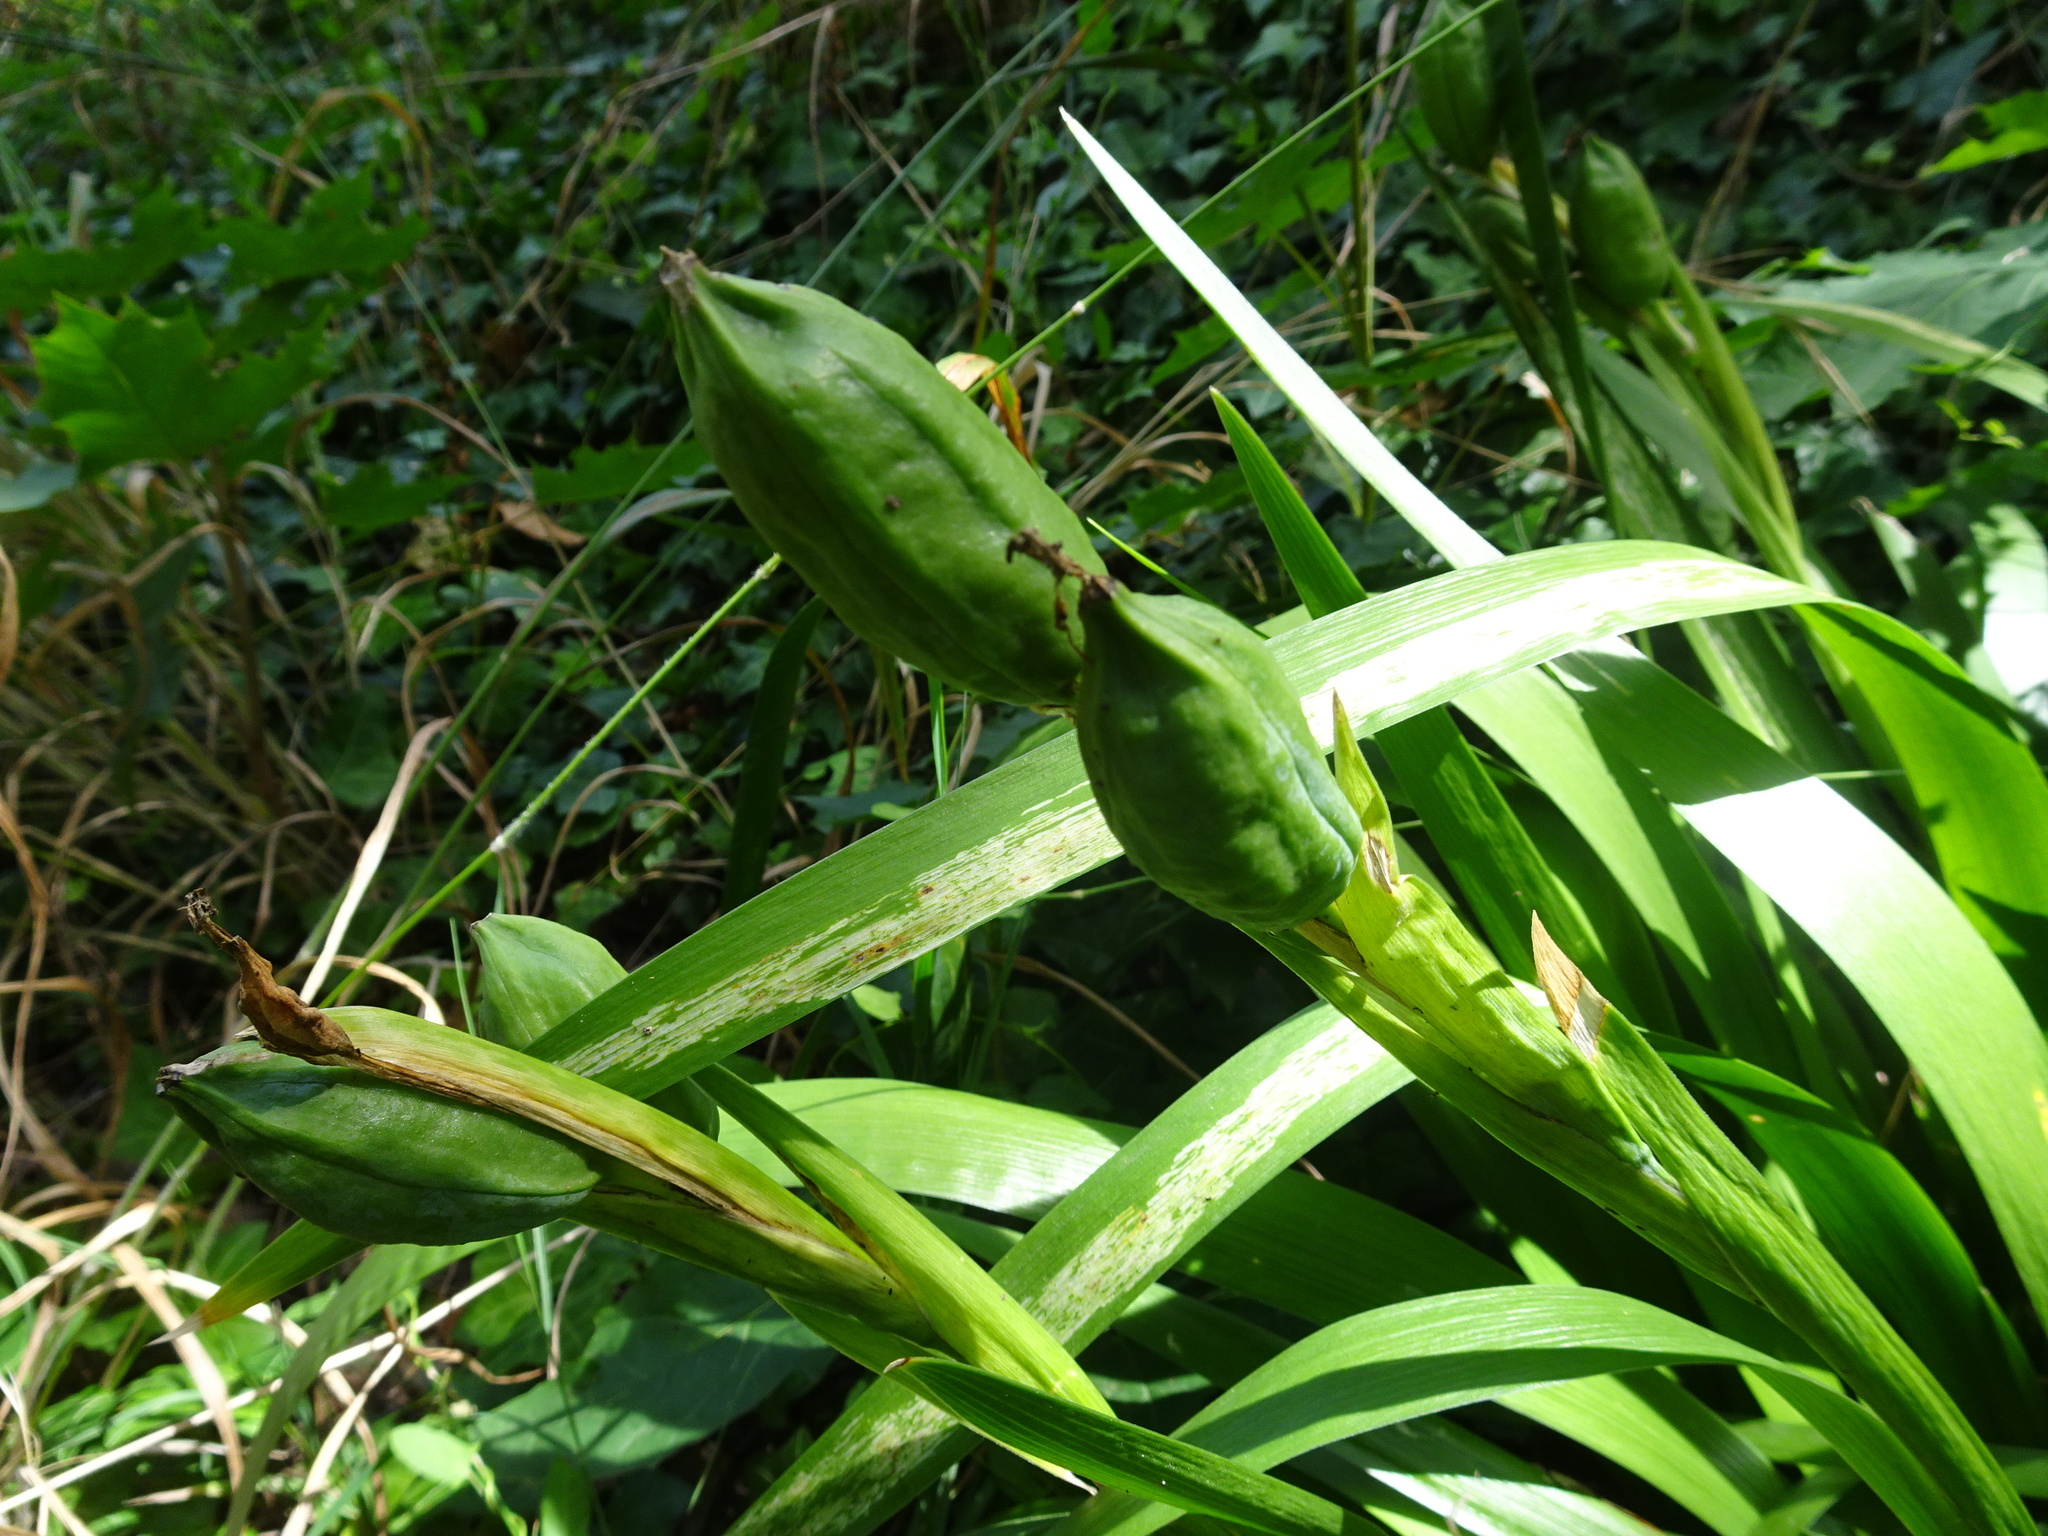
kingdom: Plantae
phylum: Tracheophyta
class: Liliopsida
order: Asparagales
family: Iridaceae
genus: Iris
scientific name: Iris foetidissima
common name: Stinking iris
